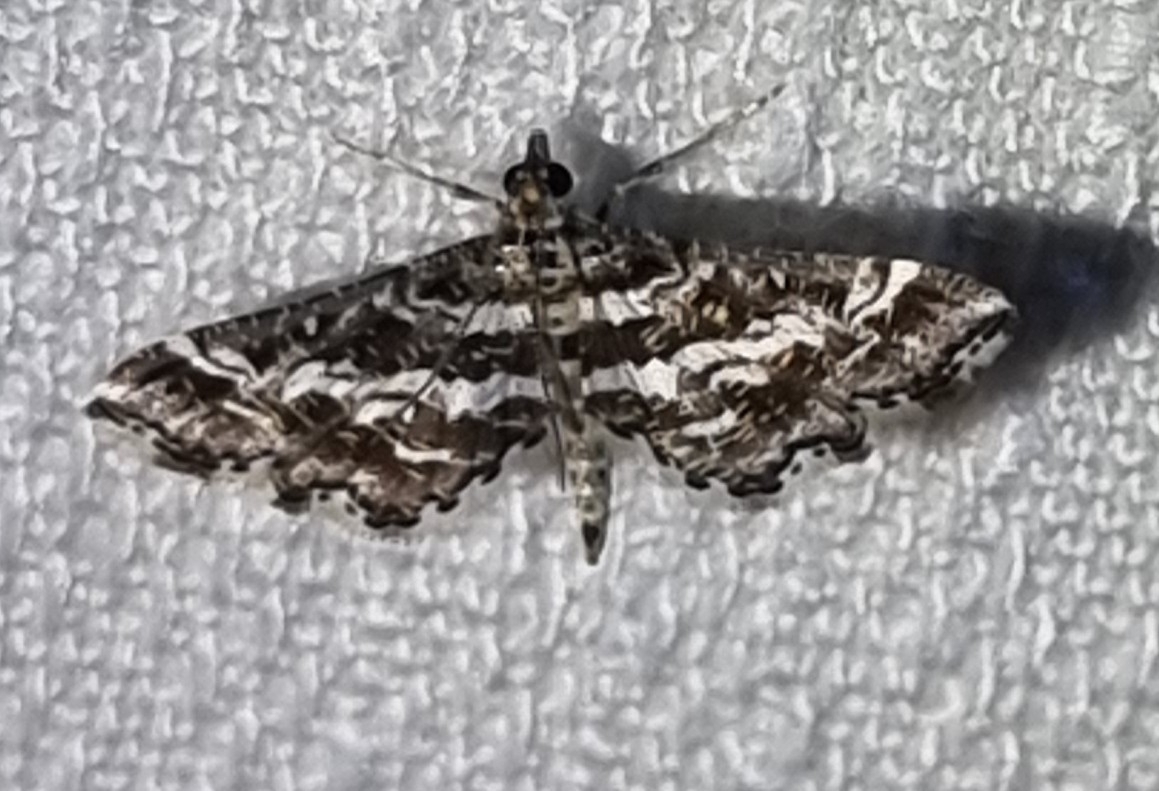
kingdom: Animalia
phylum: Arthropoda
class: Insecta
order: Lepidoptera
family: Crambidae
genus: Diasemiopsis
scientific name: Diasemiopsis ramburialis
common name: Vagrant china-mark
